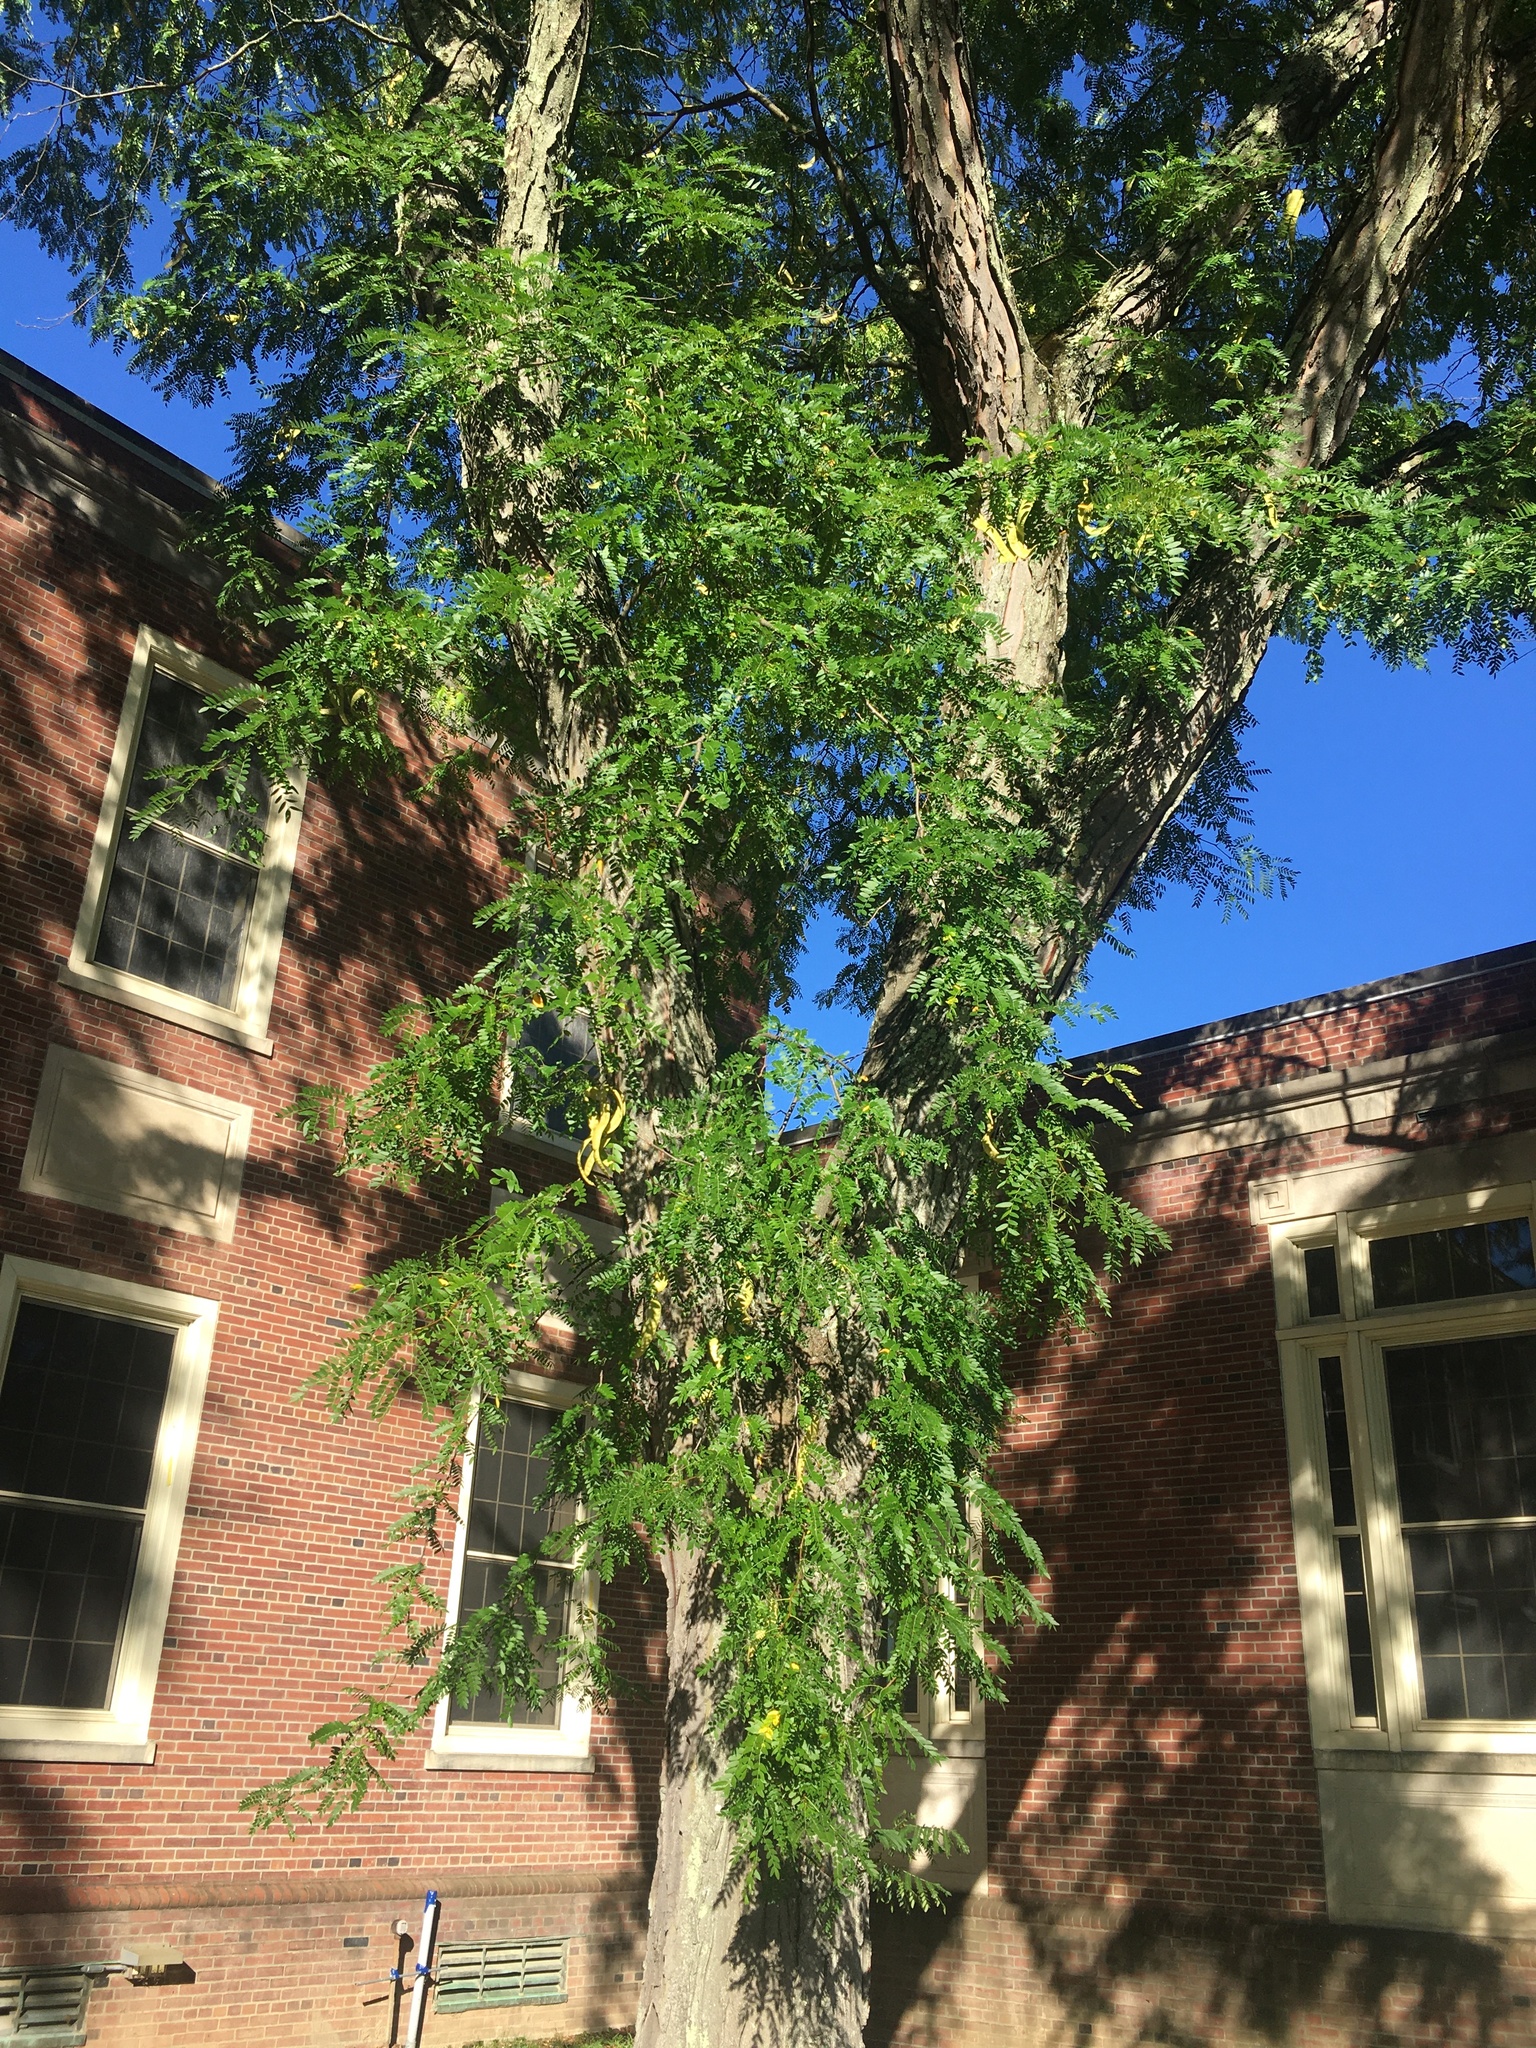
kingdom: Plantae
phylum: Tracheophyta
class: Magnoliopsida
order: Fabales
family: Fabaceae
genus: Gleditsia
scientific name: Gleditsia triacanthos
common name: Common honeylocust
